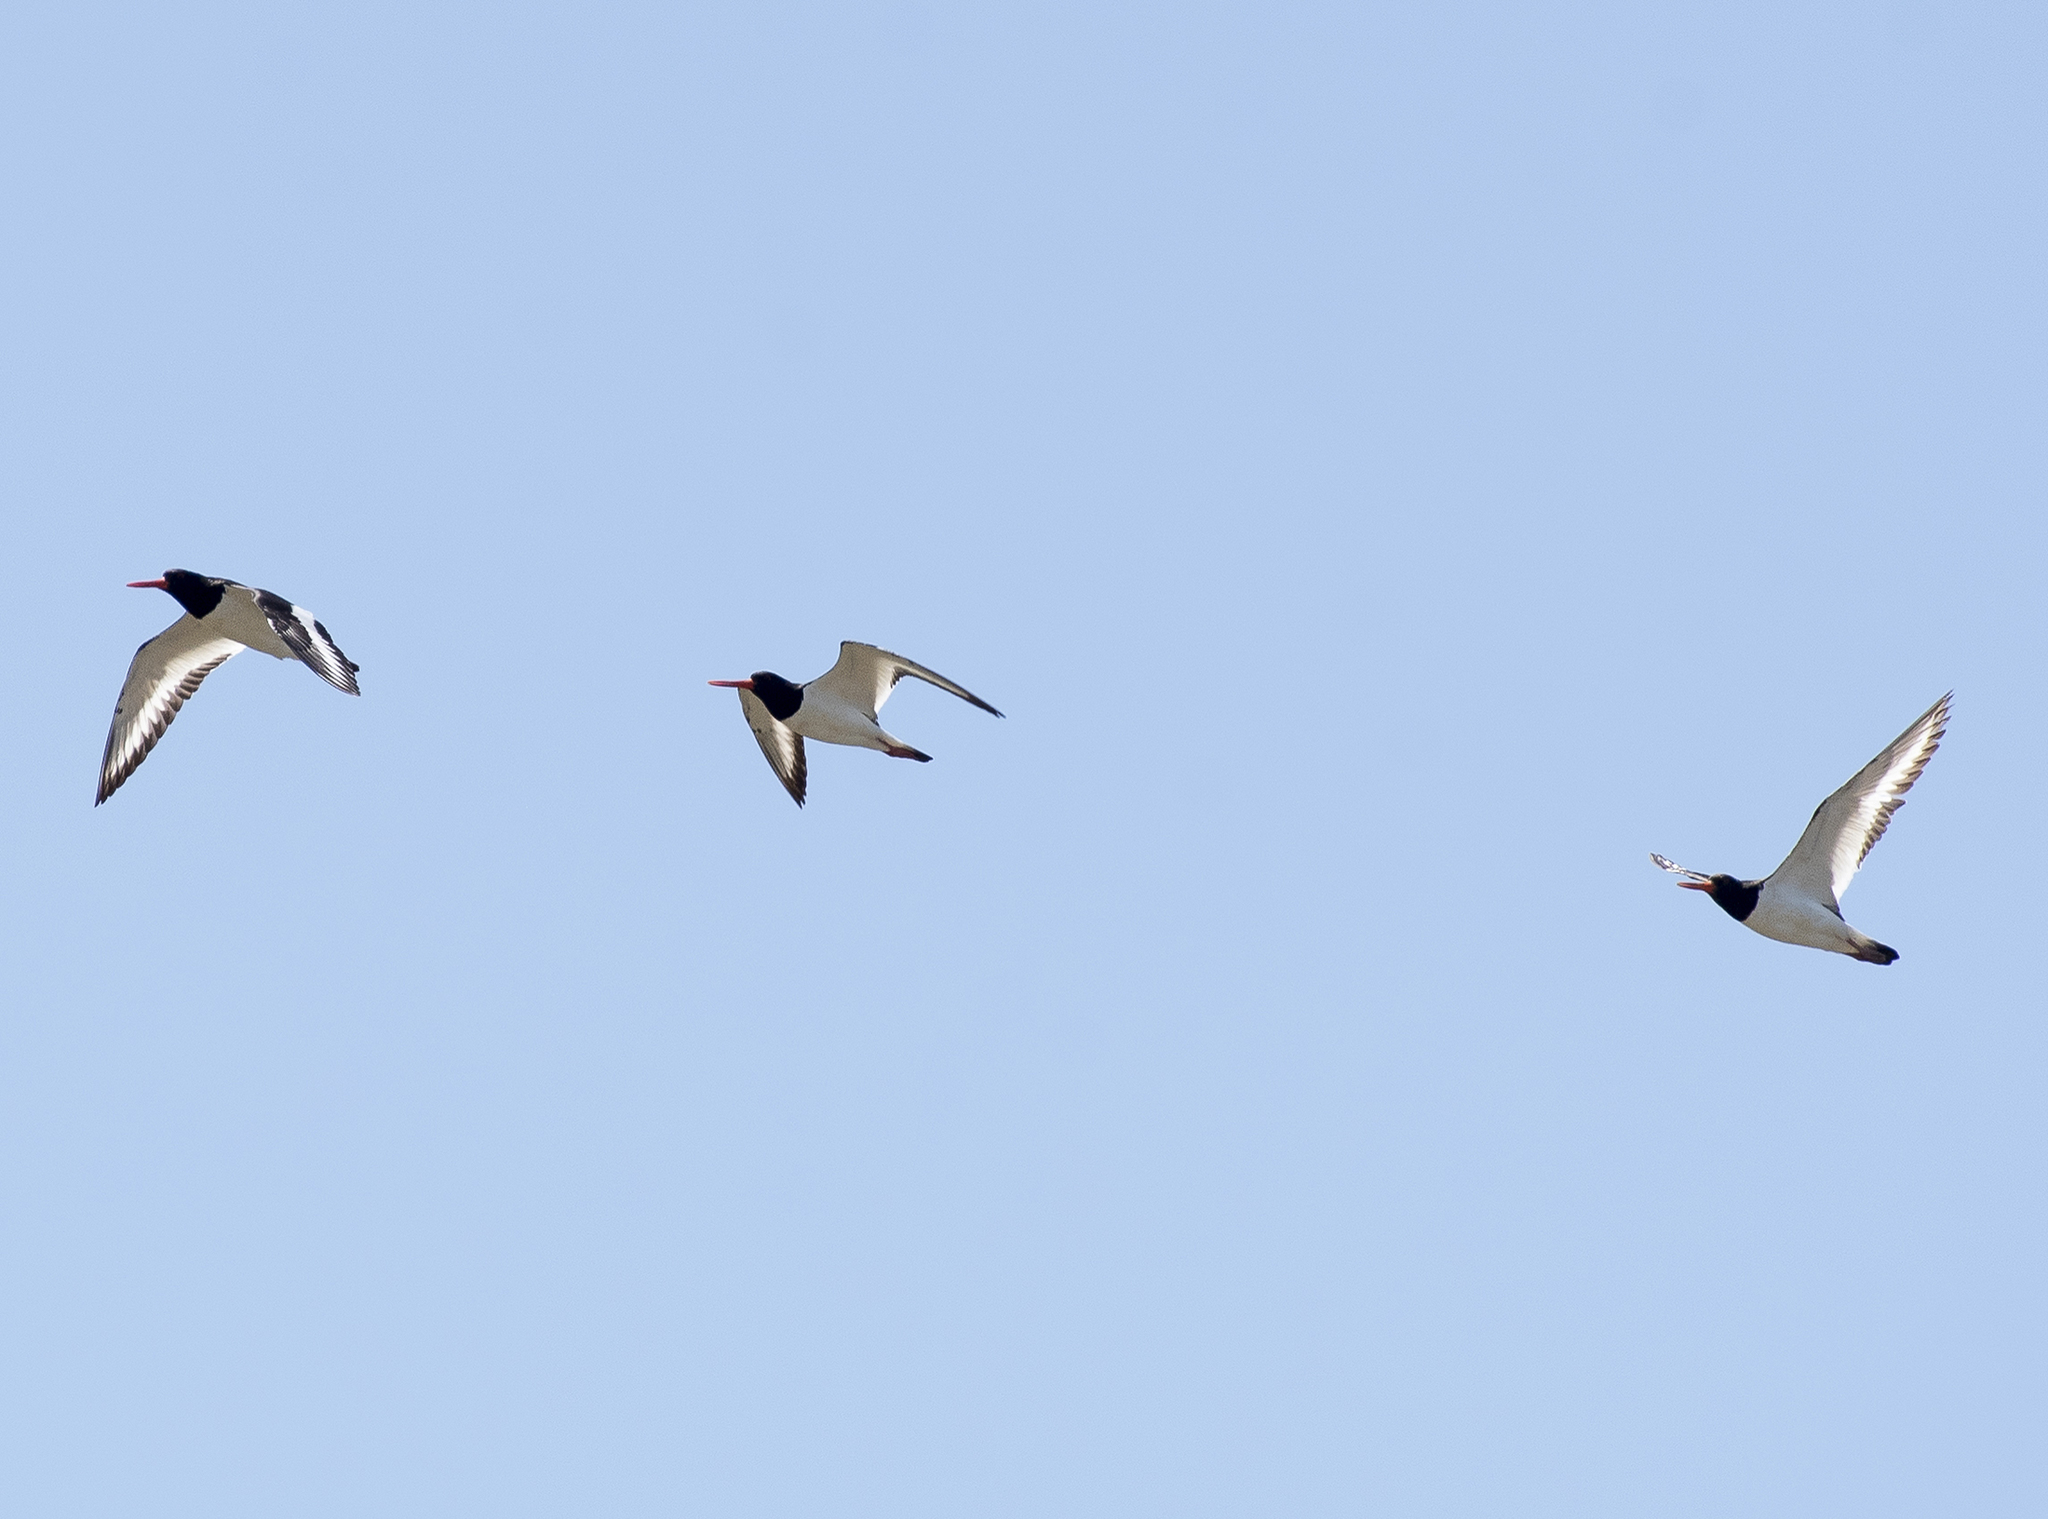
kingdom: Animalia
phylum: Chordata
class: Aves
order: Charadriiformes
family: Haematopodidae
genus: Haematopus
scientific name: Haematopus ostralegus
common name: Eurasian oystercatcher
